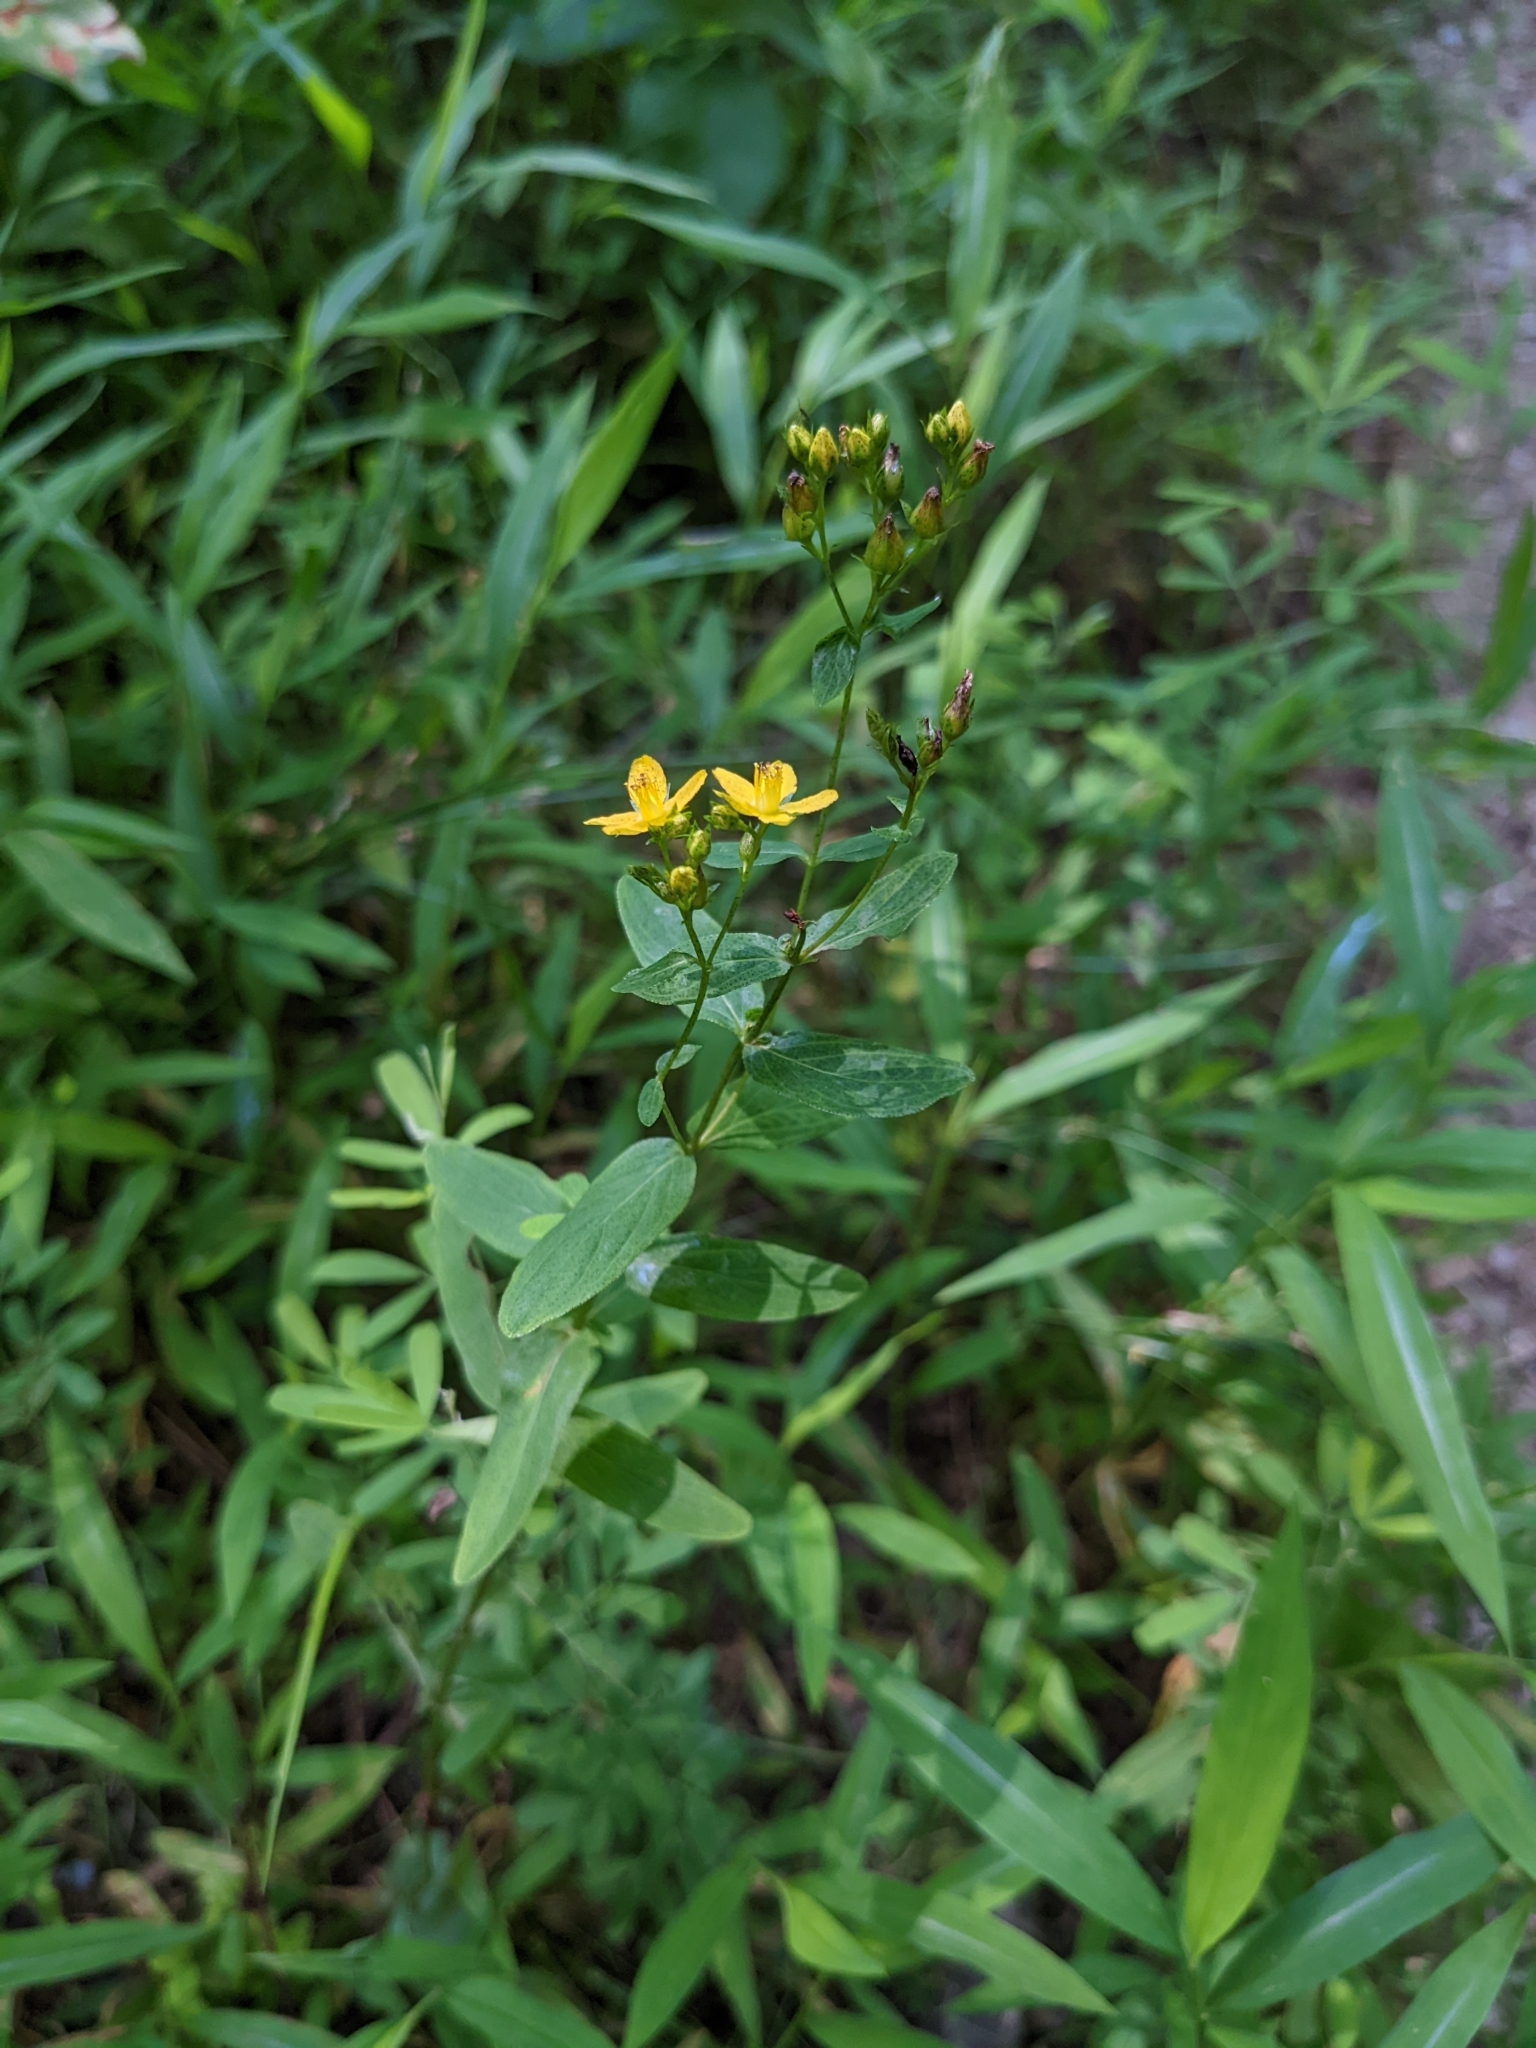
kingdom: Plantae
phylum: Tracheophyta
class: Magnoliopsida
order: Malpighiales
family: Hypericaceae
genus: Hypericum
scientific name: Hypericum punctatum
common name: Spotted st. john's-wort
